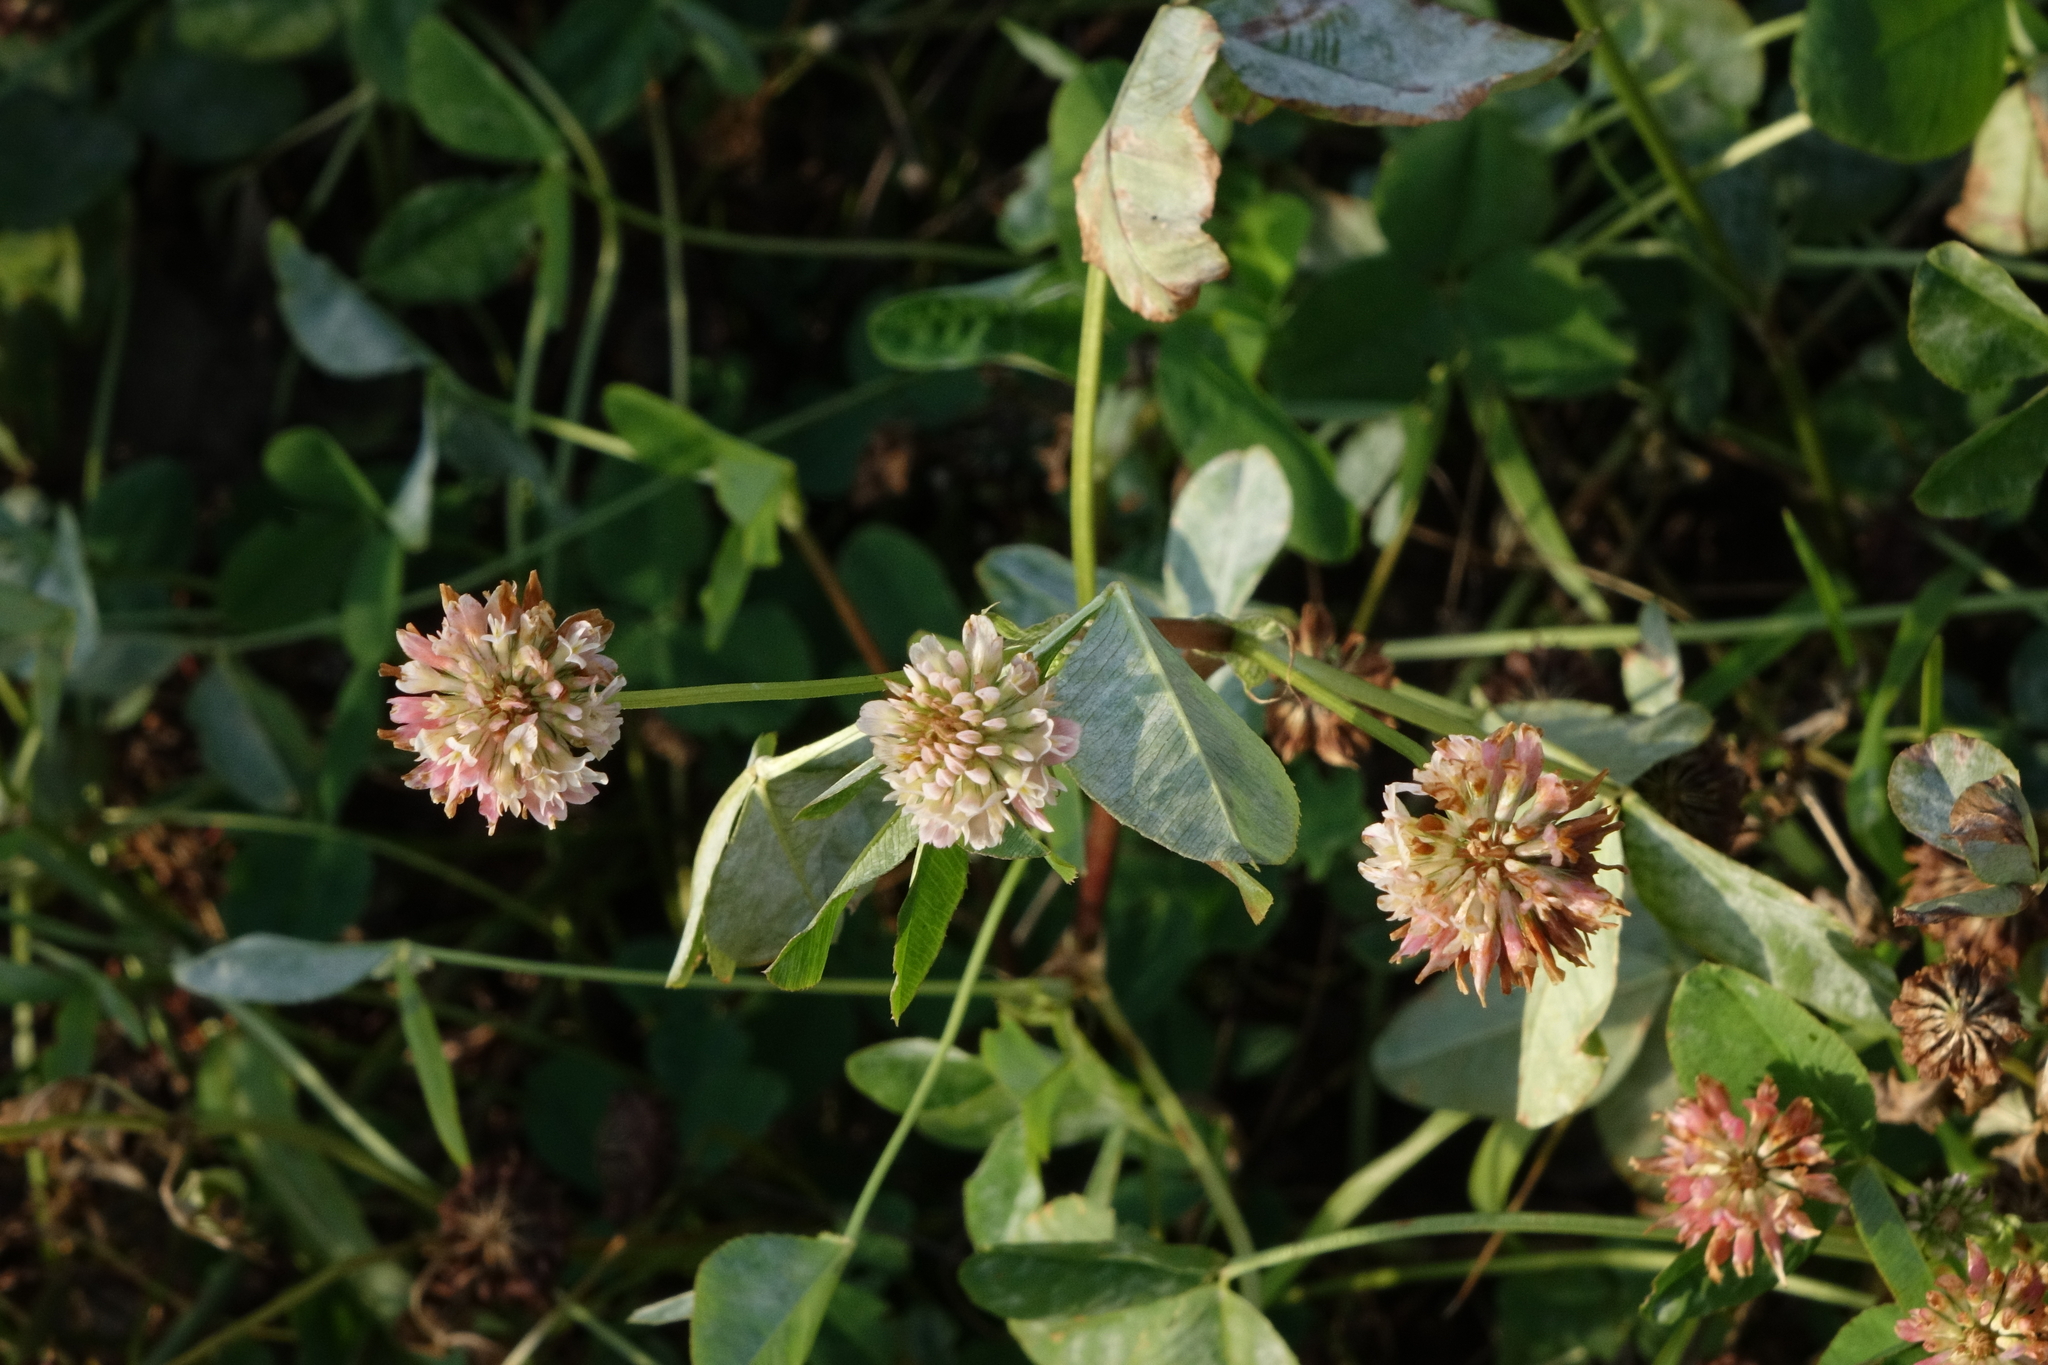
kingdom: Plantae
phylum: Tracheophyta
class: Magnoliopsida
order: Fabales
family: Fabaceae
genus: Trifolium
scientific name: Trifolium hybridum
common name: Alsike clover
